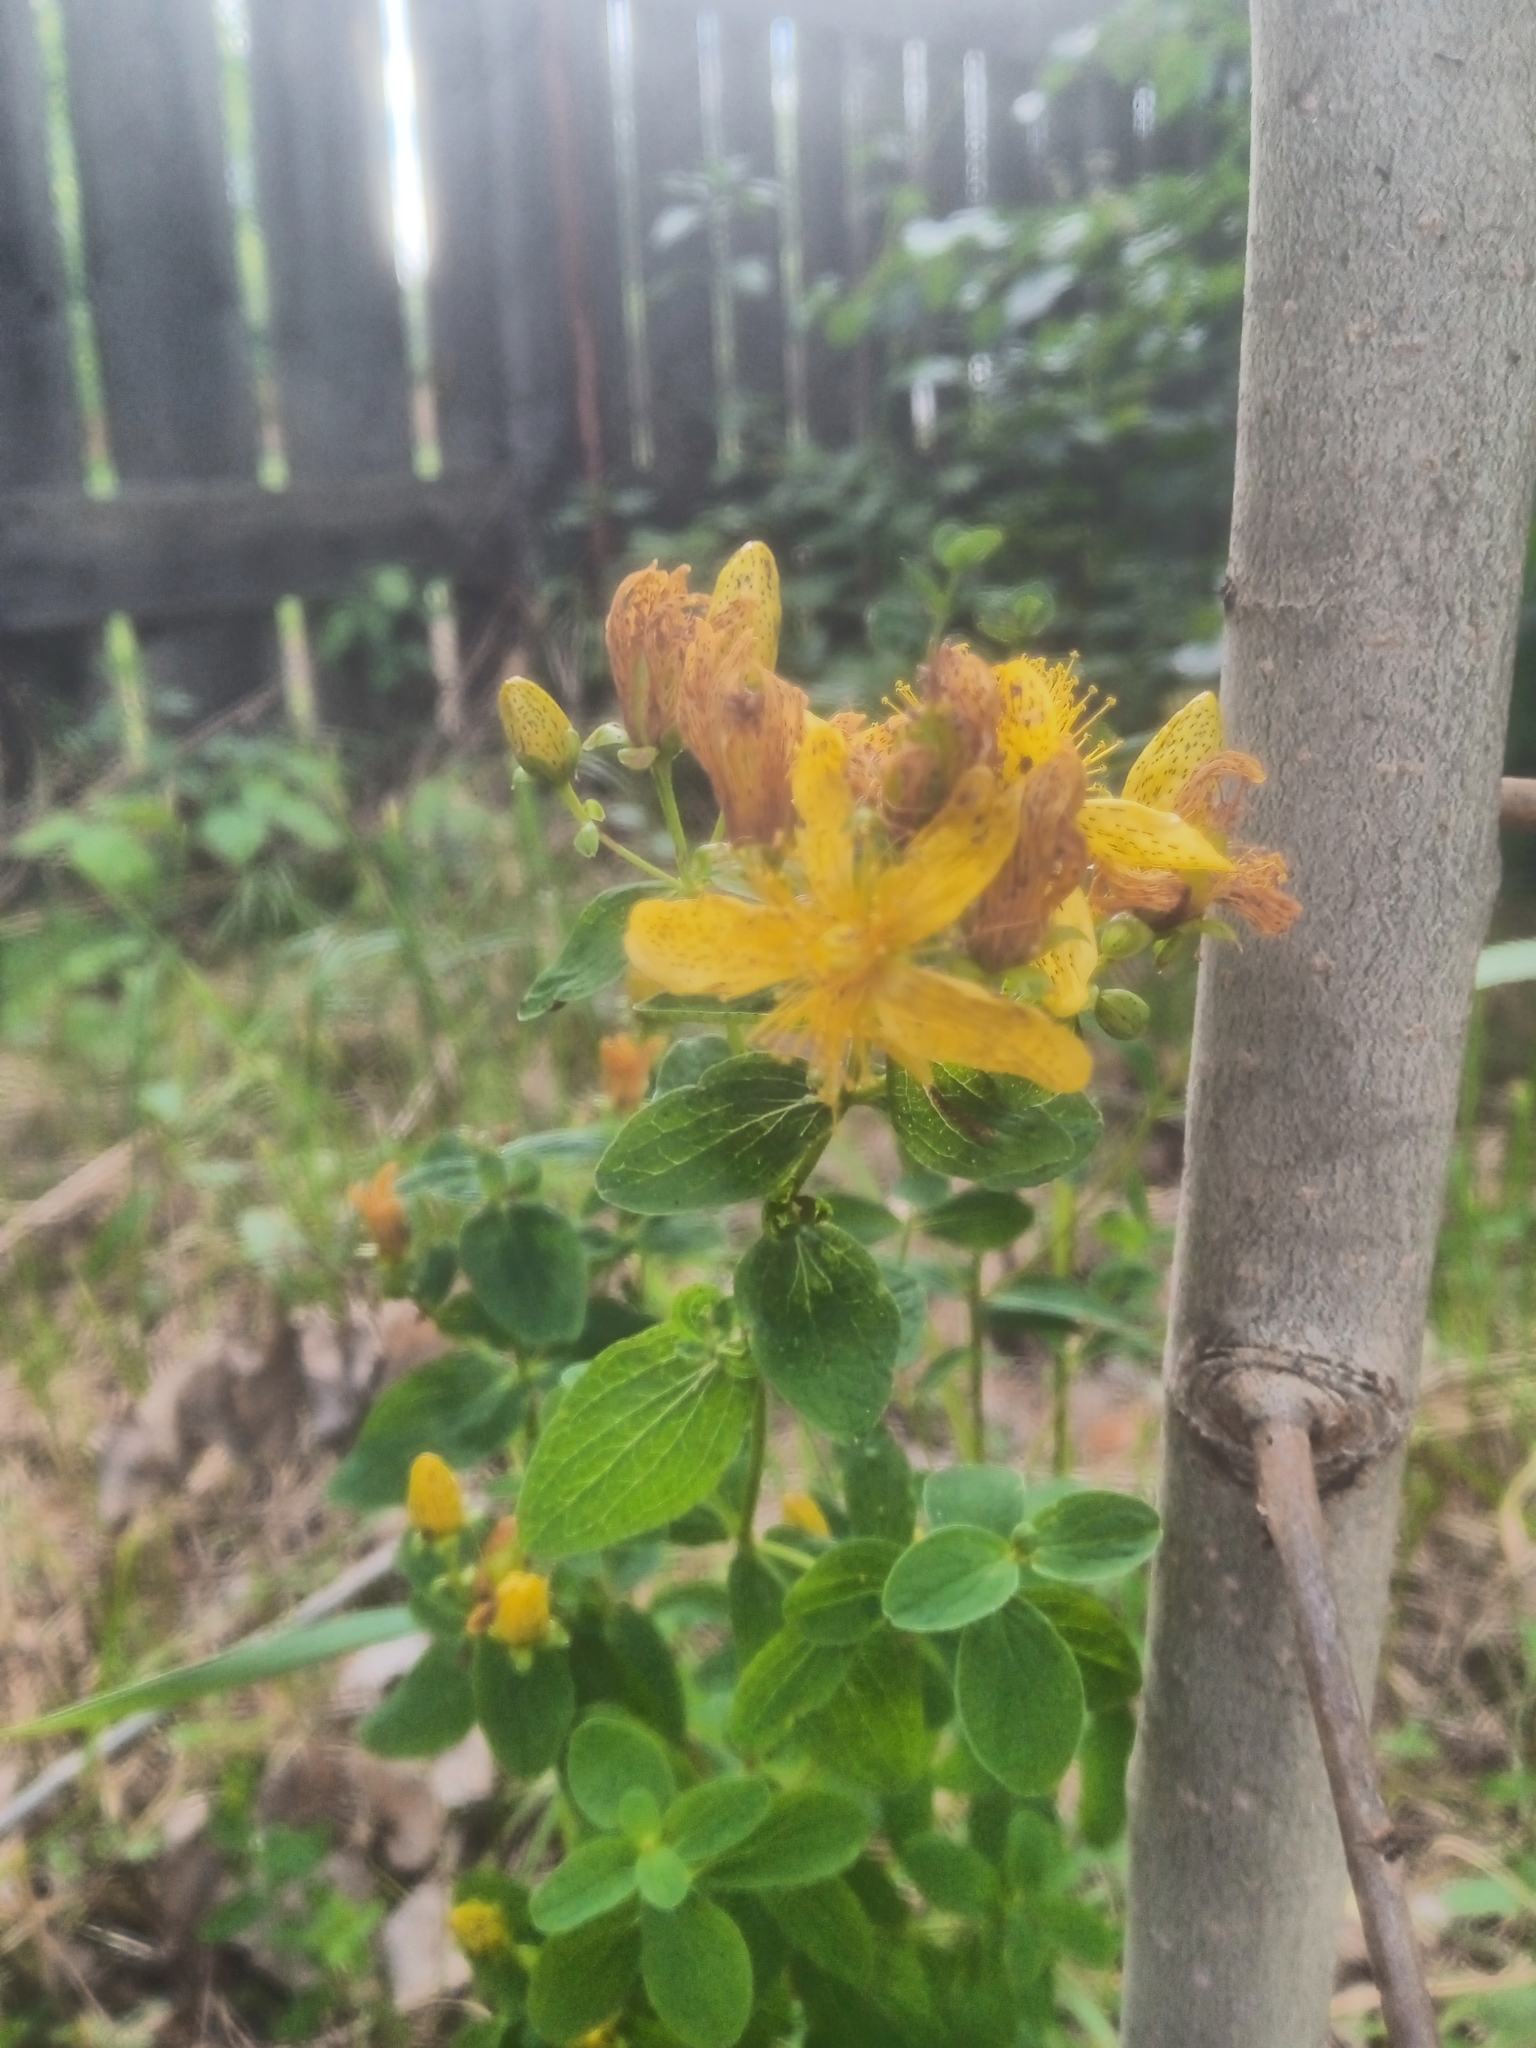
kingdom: Plantae
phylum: Tracheophyta
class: Magnoliopsida
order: Malpighiales
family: Hypericaceae
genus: Hypericum
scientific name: Hypericum maculatum
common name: Imperforate st. john's-wort
